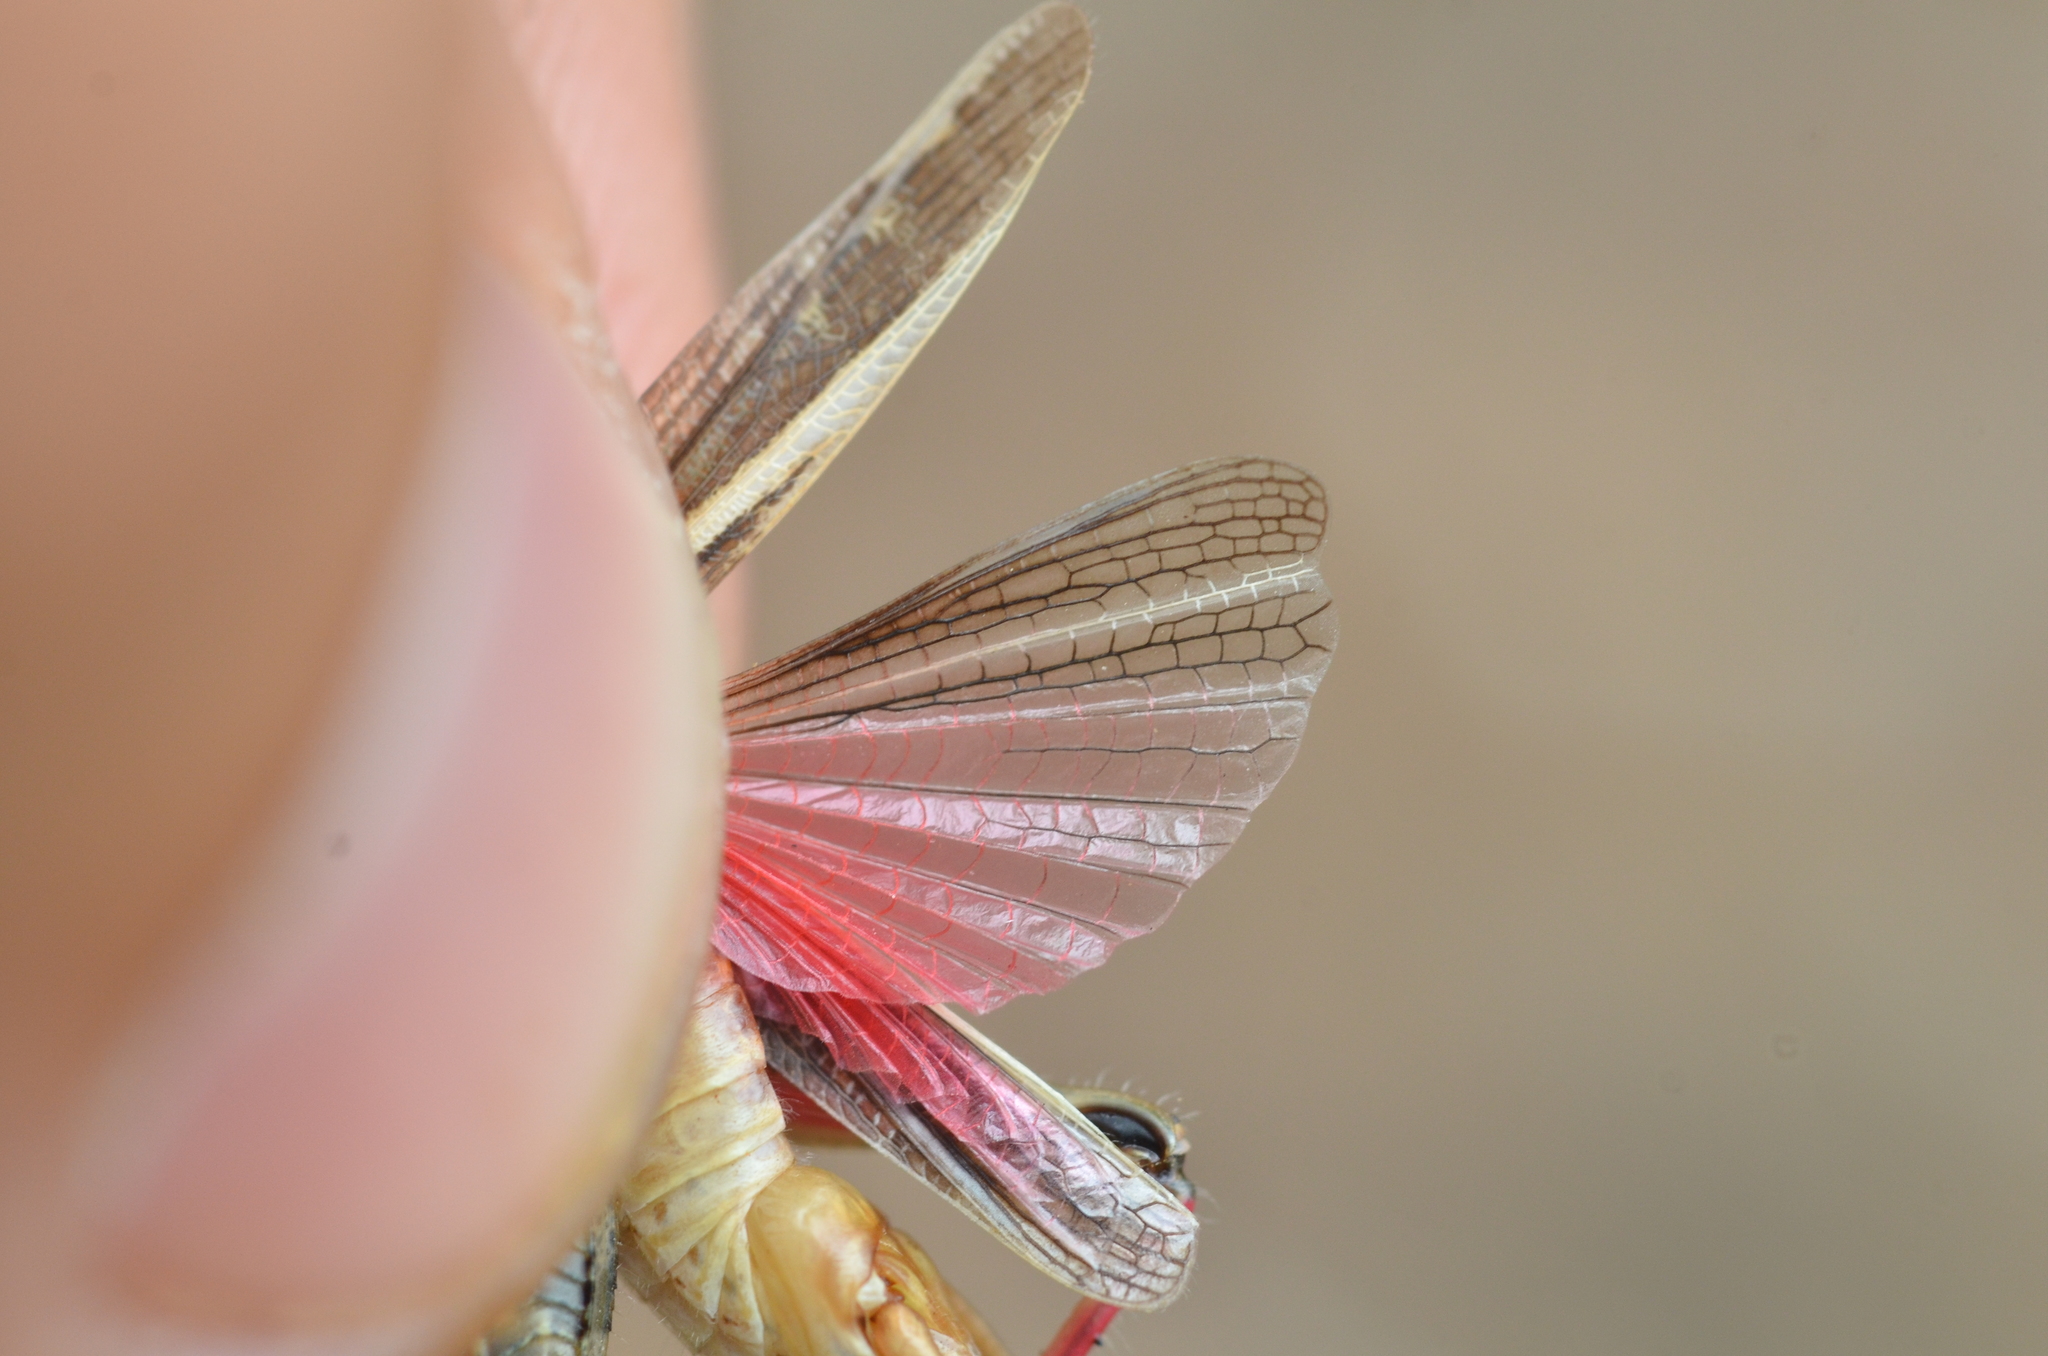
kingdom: Animalia
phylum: Arthropoda
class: Insecta
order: Orthoptera
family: Acrididae
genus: Calliptamus
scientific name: Calliptamus barbarus
